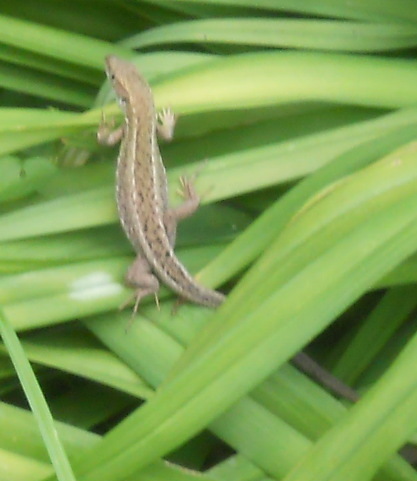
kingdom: Animalia
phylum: Chordata
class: Squamata
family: Lacertidae
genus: Lacerta
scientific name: Lacerta viridis
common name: European green lizard
